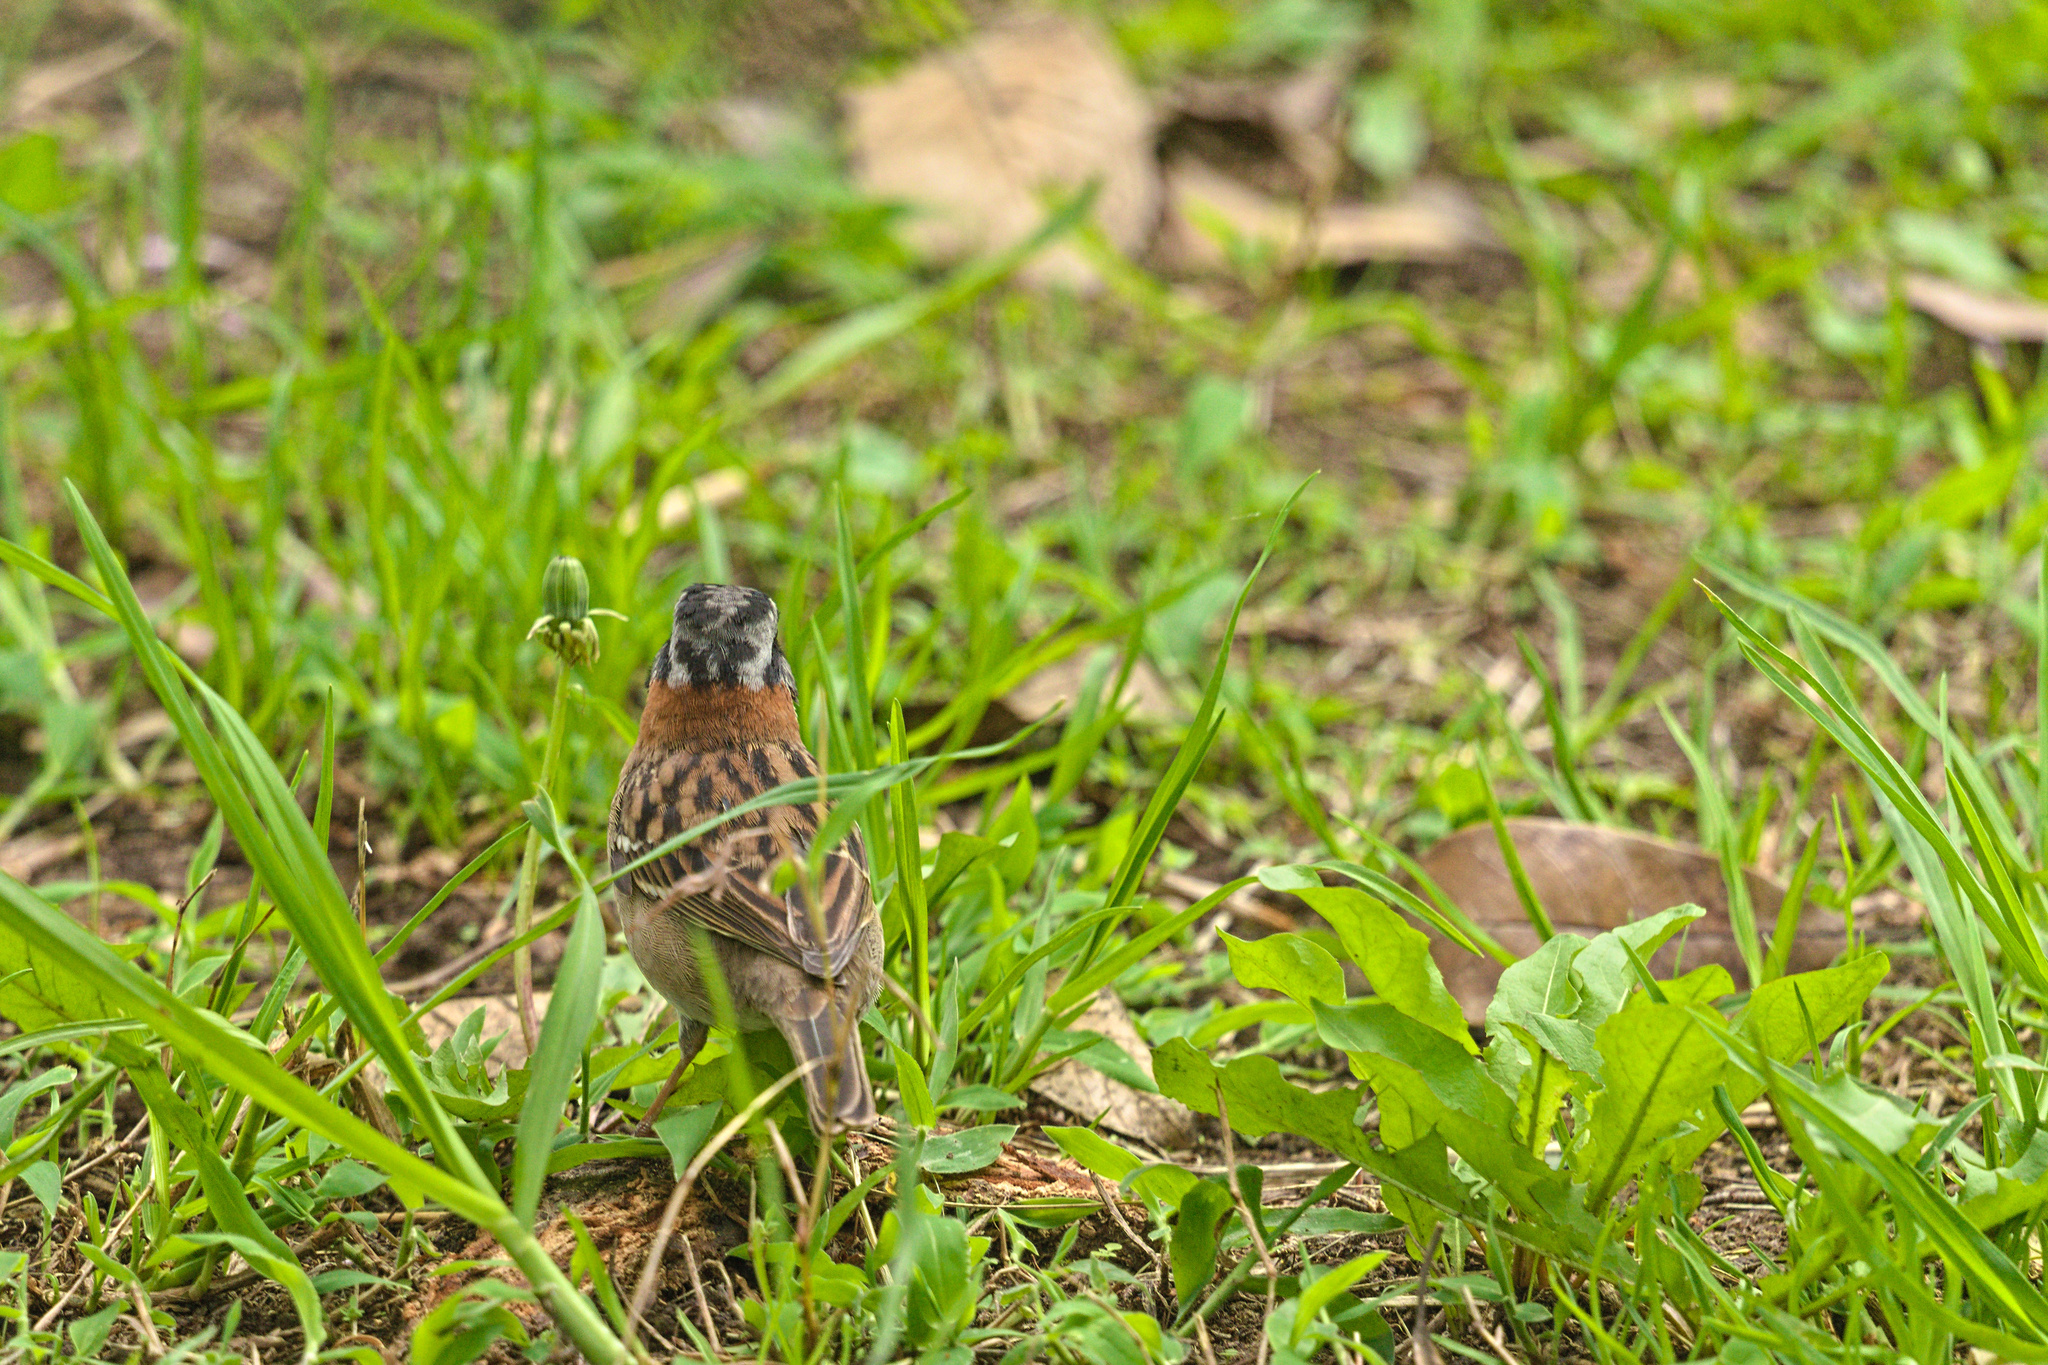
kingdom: Animalia
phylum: Chordata
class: Aves
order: Passeriformes
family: Passerellidae
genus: Zonotrichia
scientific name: Zonotrichia capensis
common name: Rufous-collared sparrow
